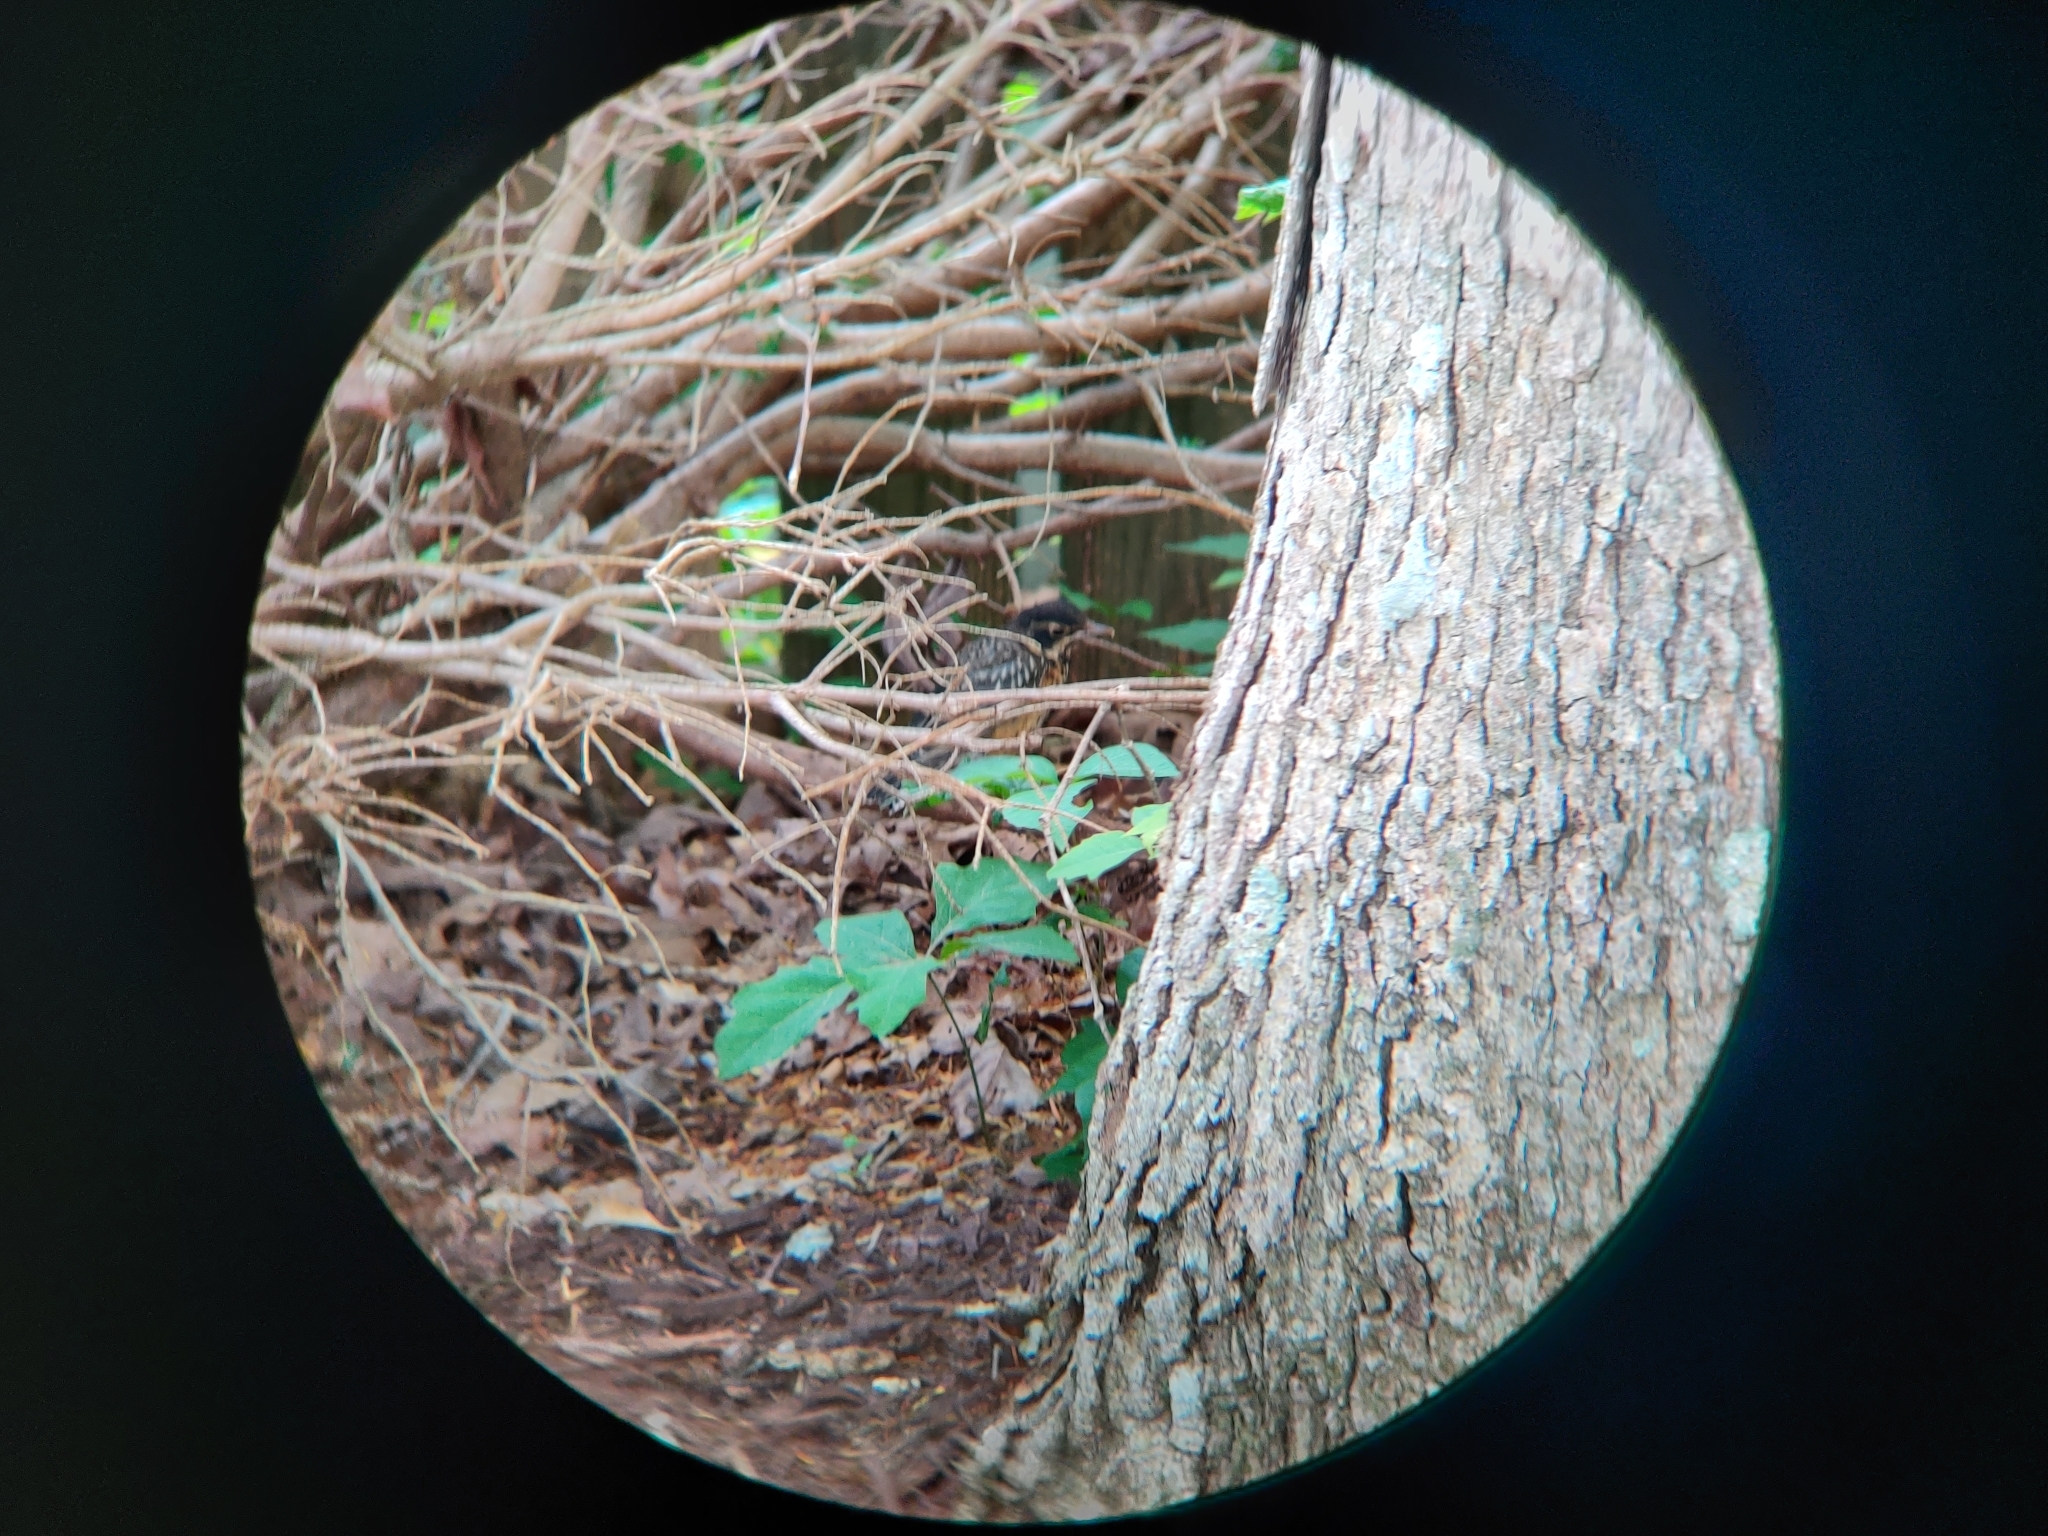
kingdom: Animalia
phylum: Chordata
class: Aves
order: Passeriformes
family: Turdidae
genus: Turdus
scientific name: Turdus migratorius
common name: American robin
